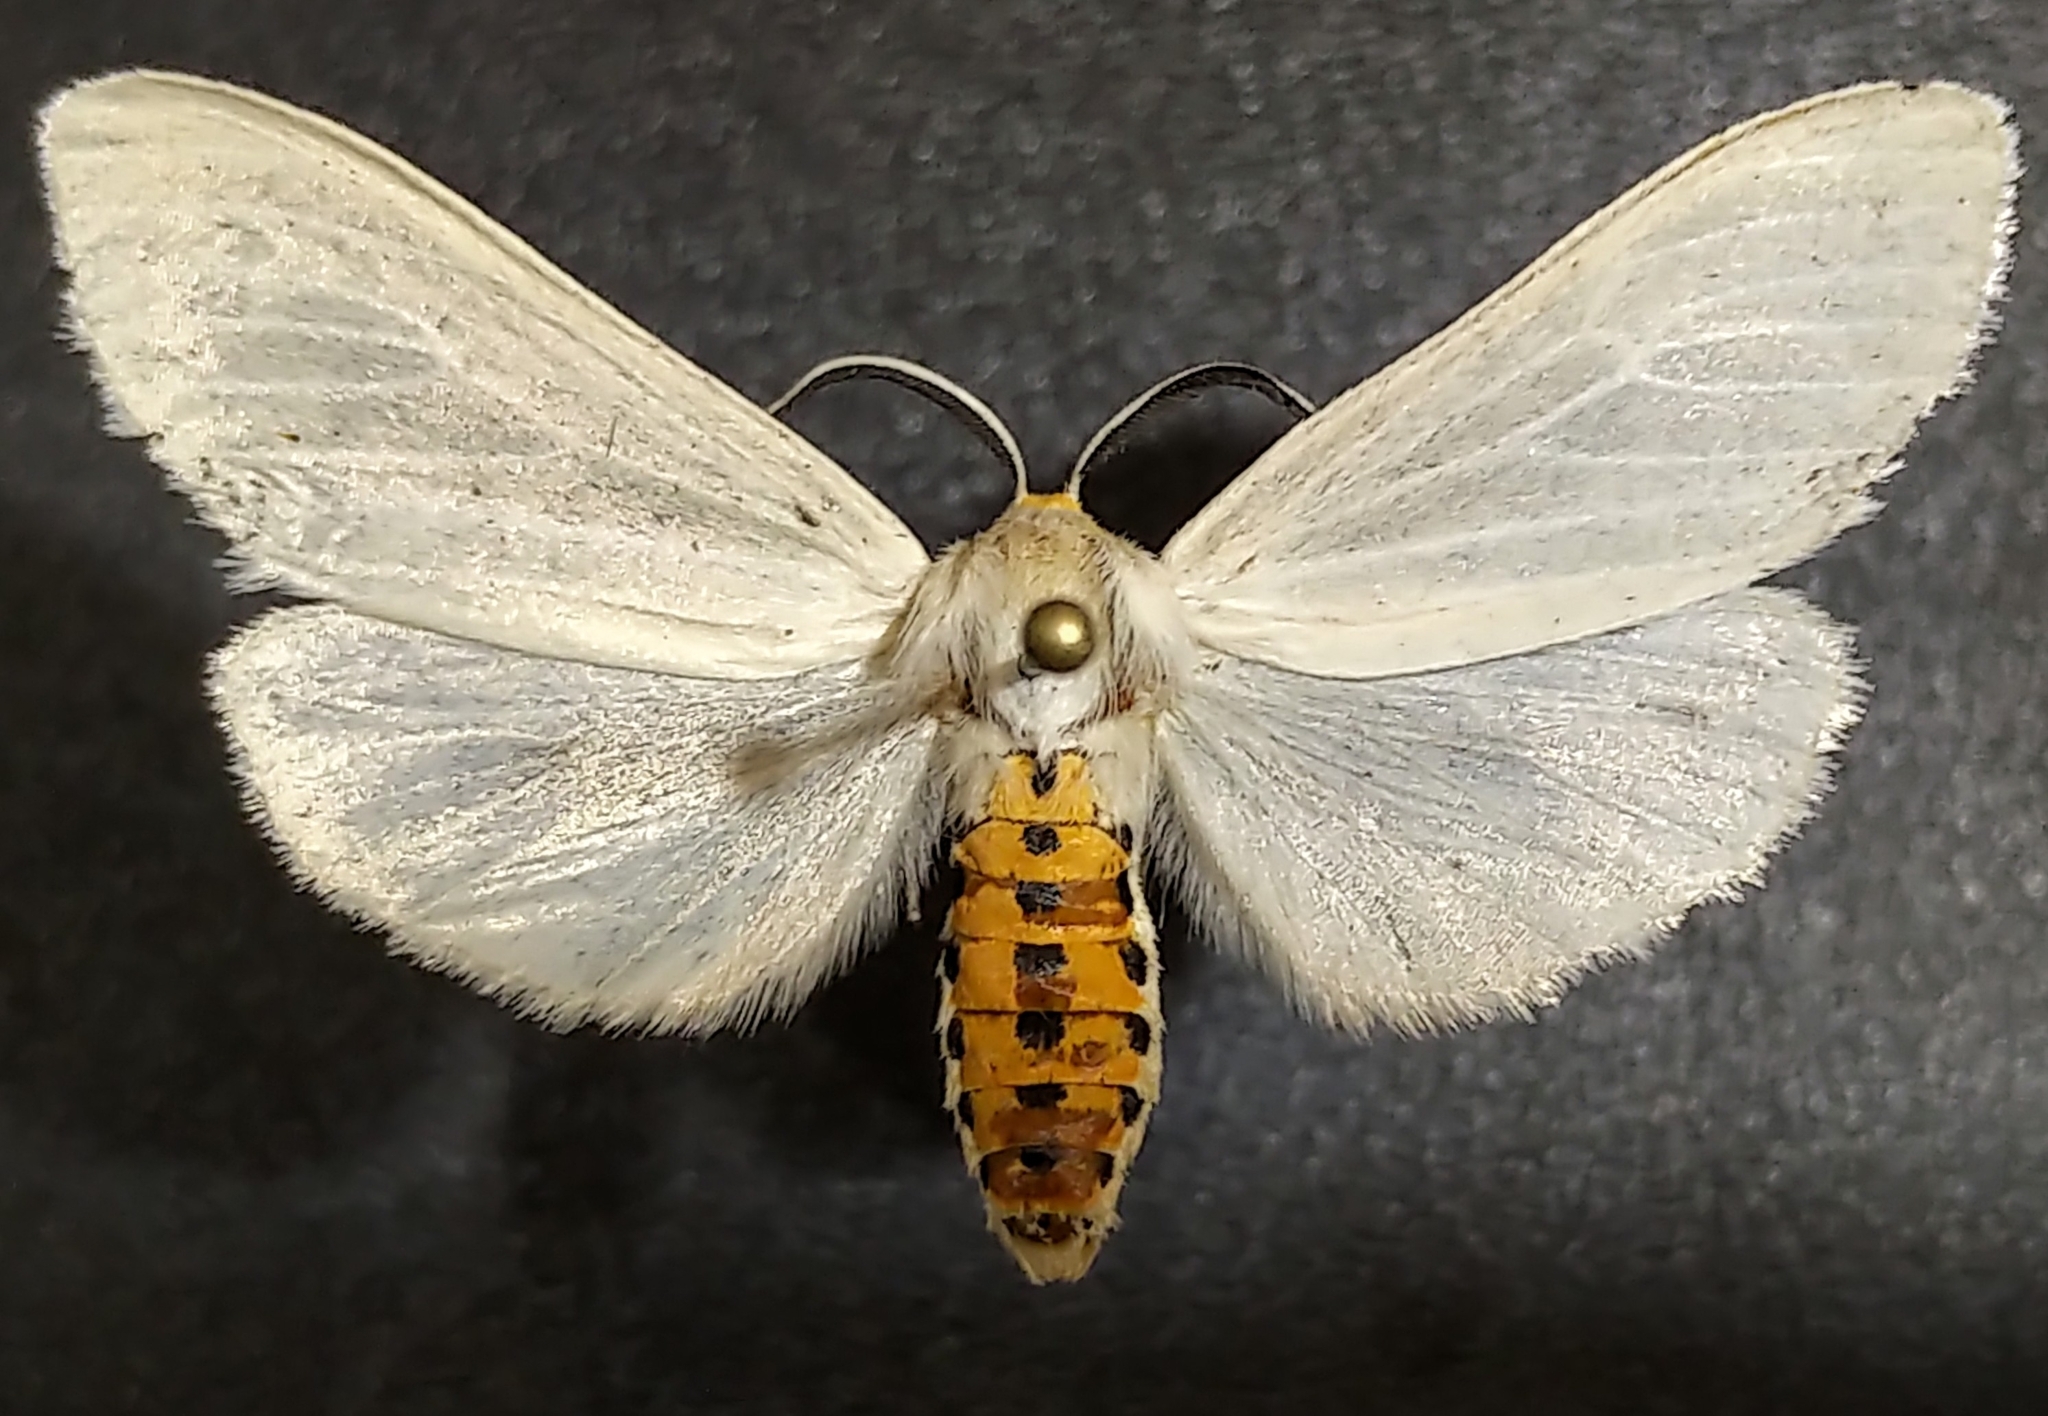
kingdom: Animalia
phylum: Arthropoda
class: Insecta
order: Lepidoptera
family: Erebidae
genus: Cycnia
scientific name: Cycnia oregonensis
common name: Oregon cycnia moth
